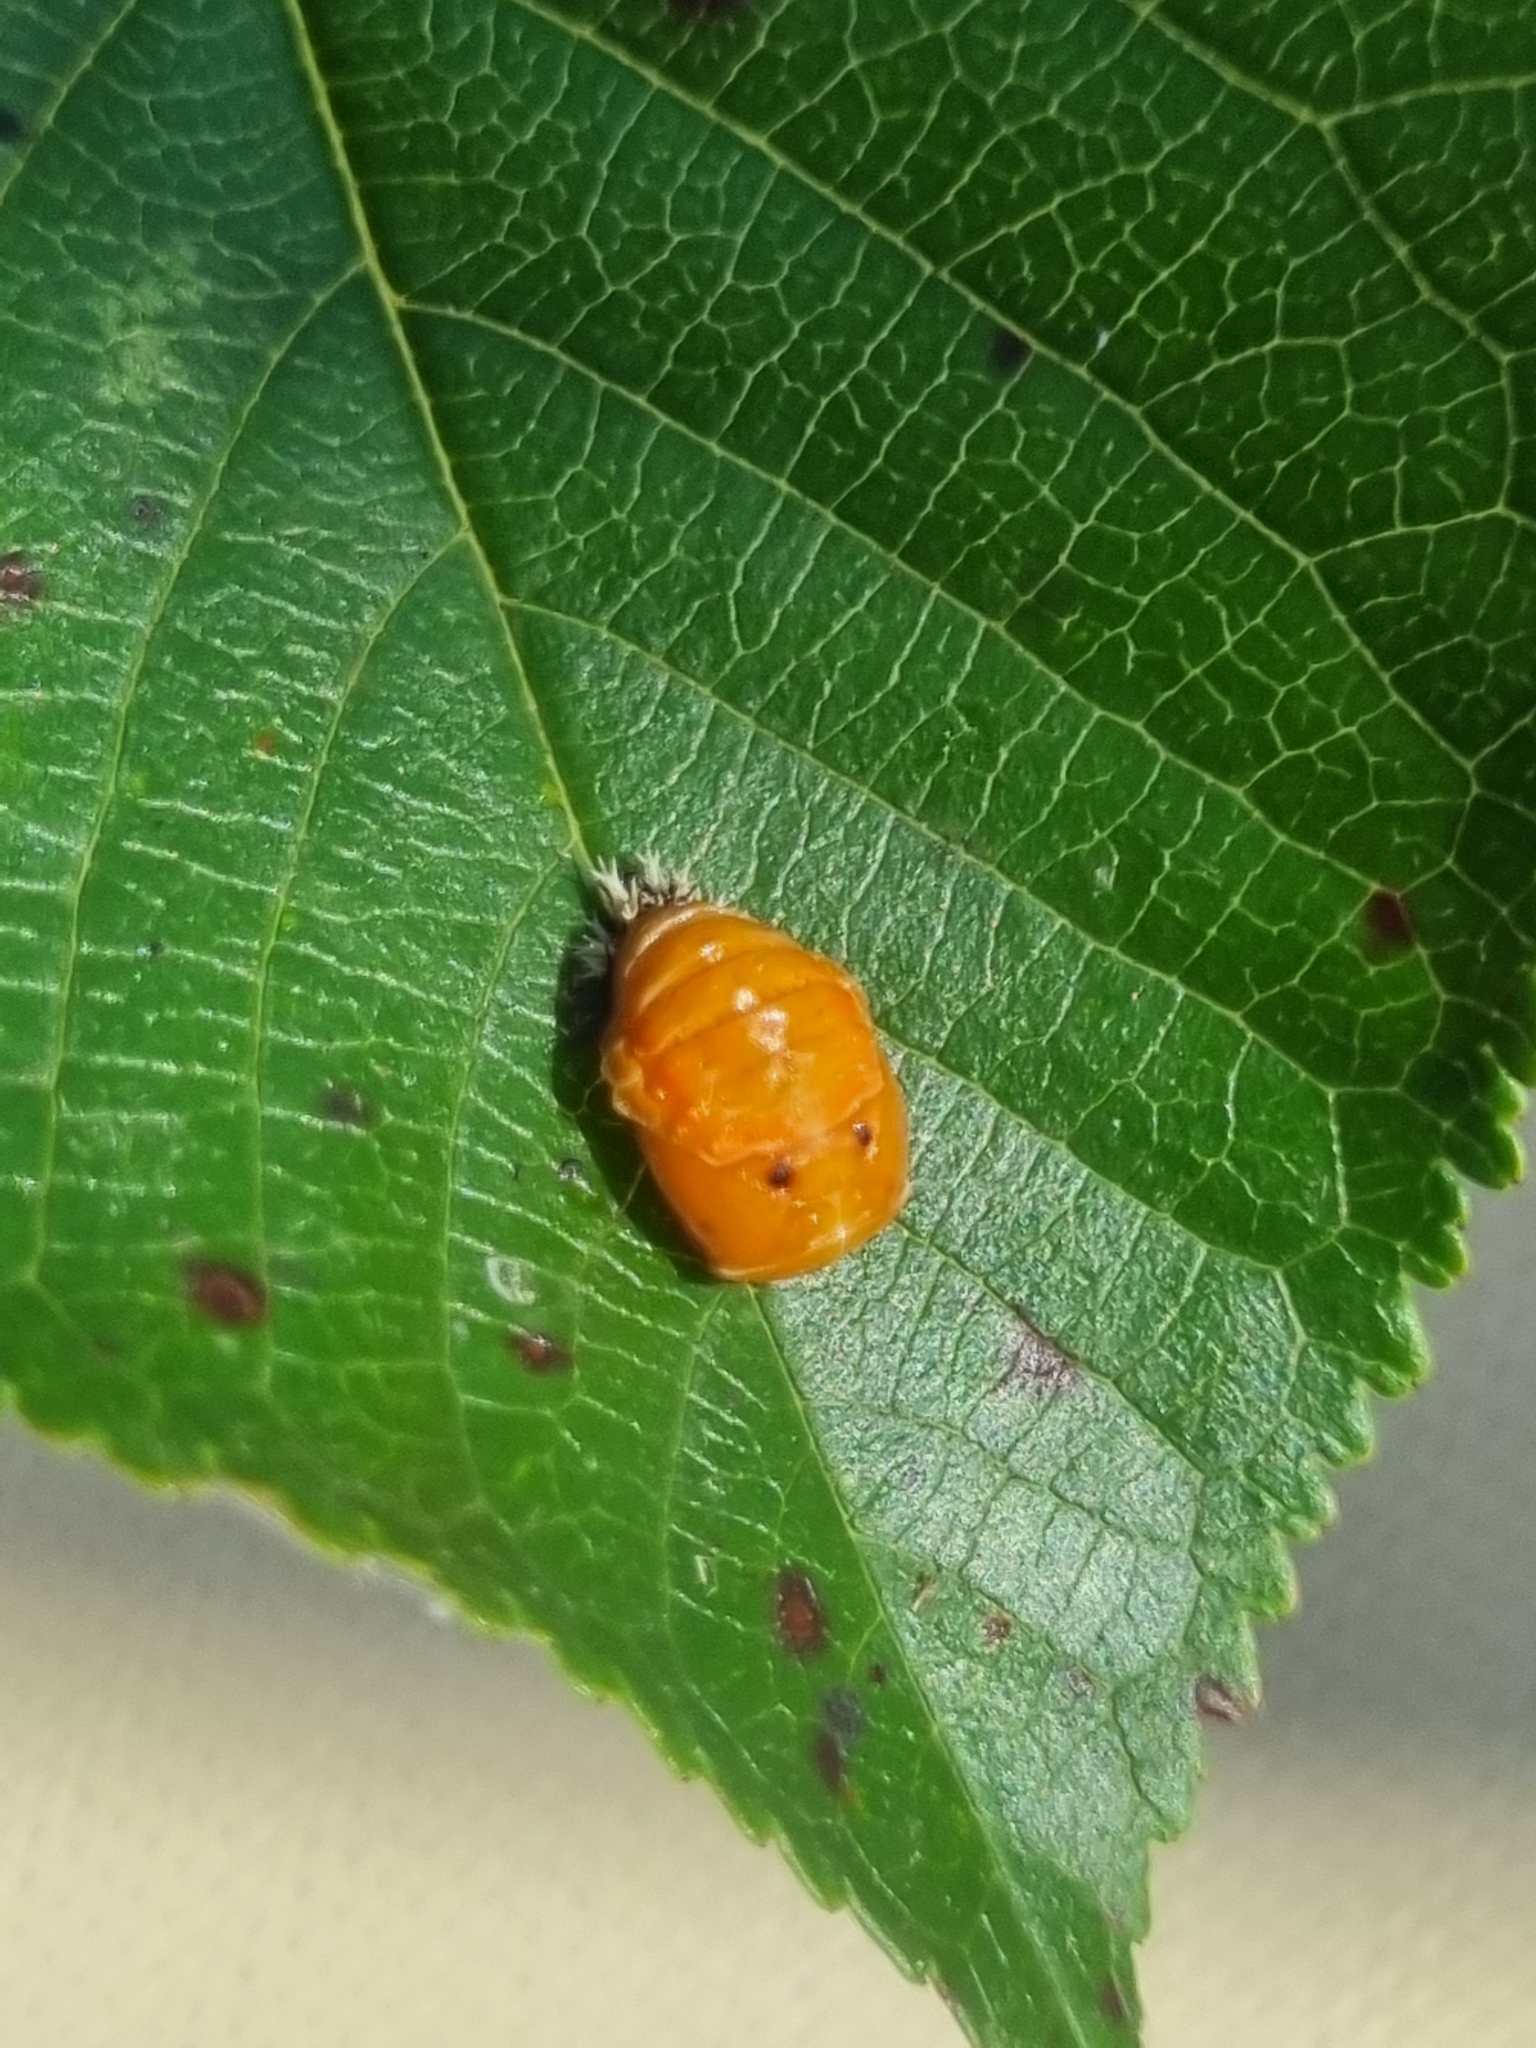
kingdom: Animalia
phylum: Arthropoda
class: Insecta
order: Coleoptera
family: Coccinellidae
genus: Harmonia
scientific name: Harmonia axyridis
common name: Harlequin ladybird
